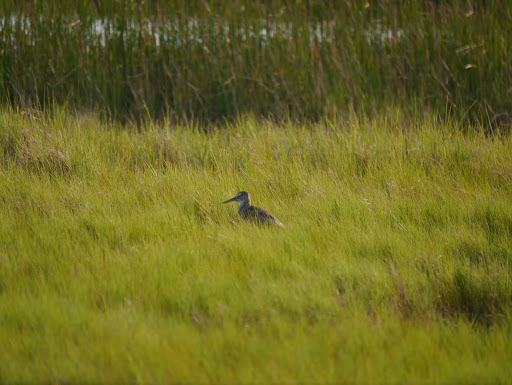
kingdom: Animalia
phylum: Chordata
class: Aves
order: Charadriiformes
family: Scolopacidae
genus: Tringa
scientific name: Tringa semipalmata
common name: Willet
